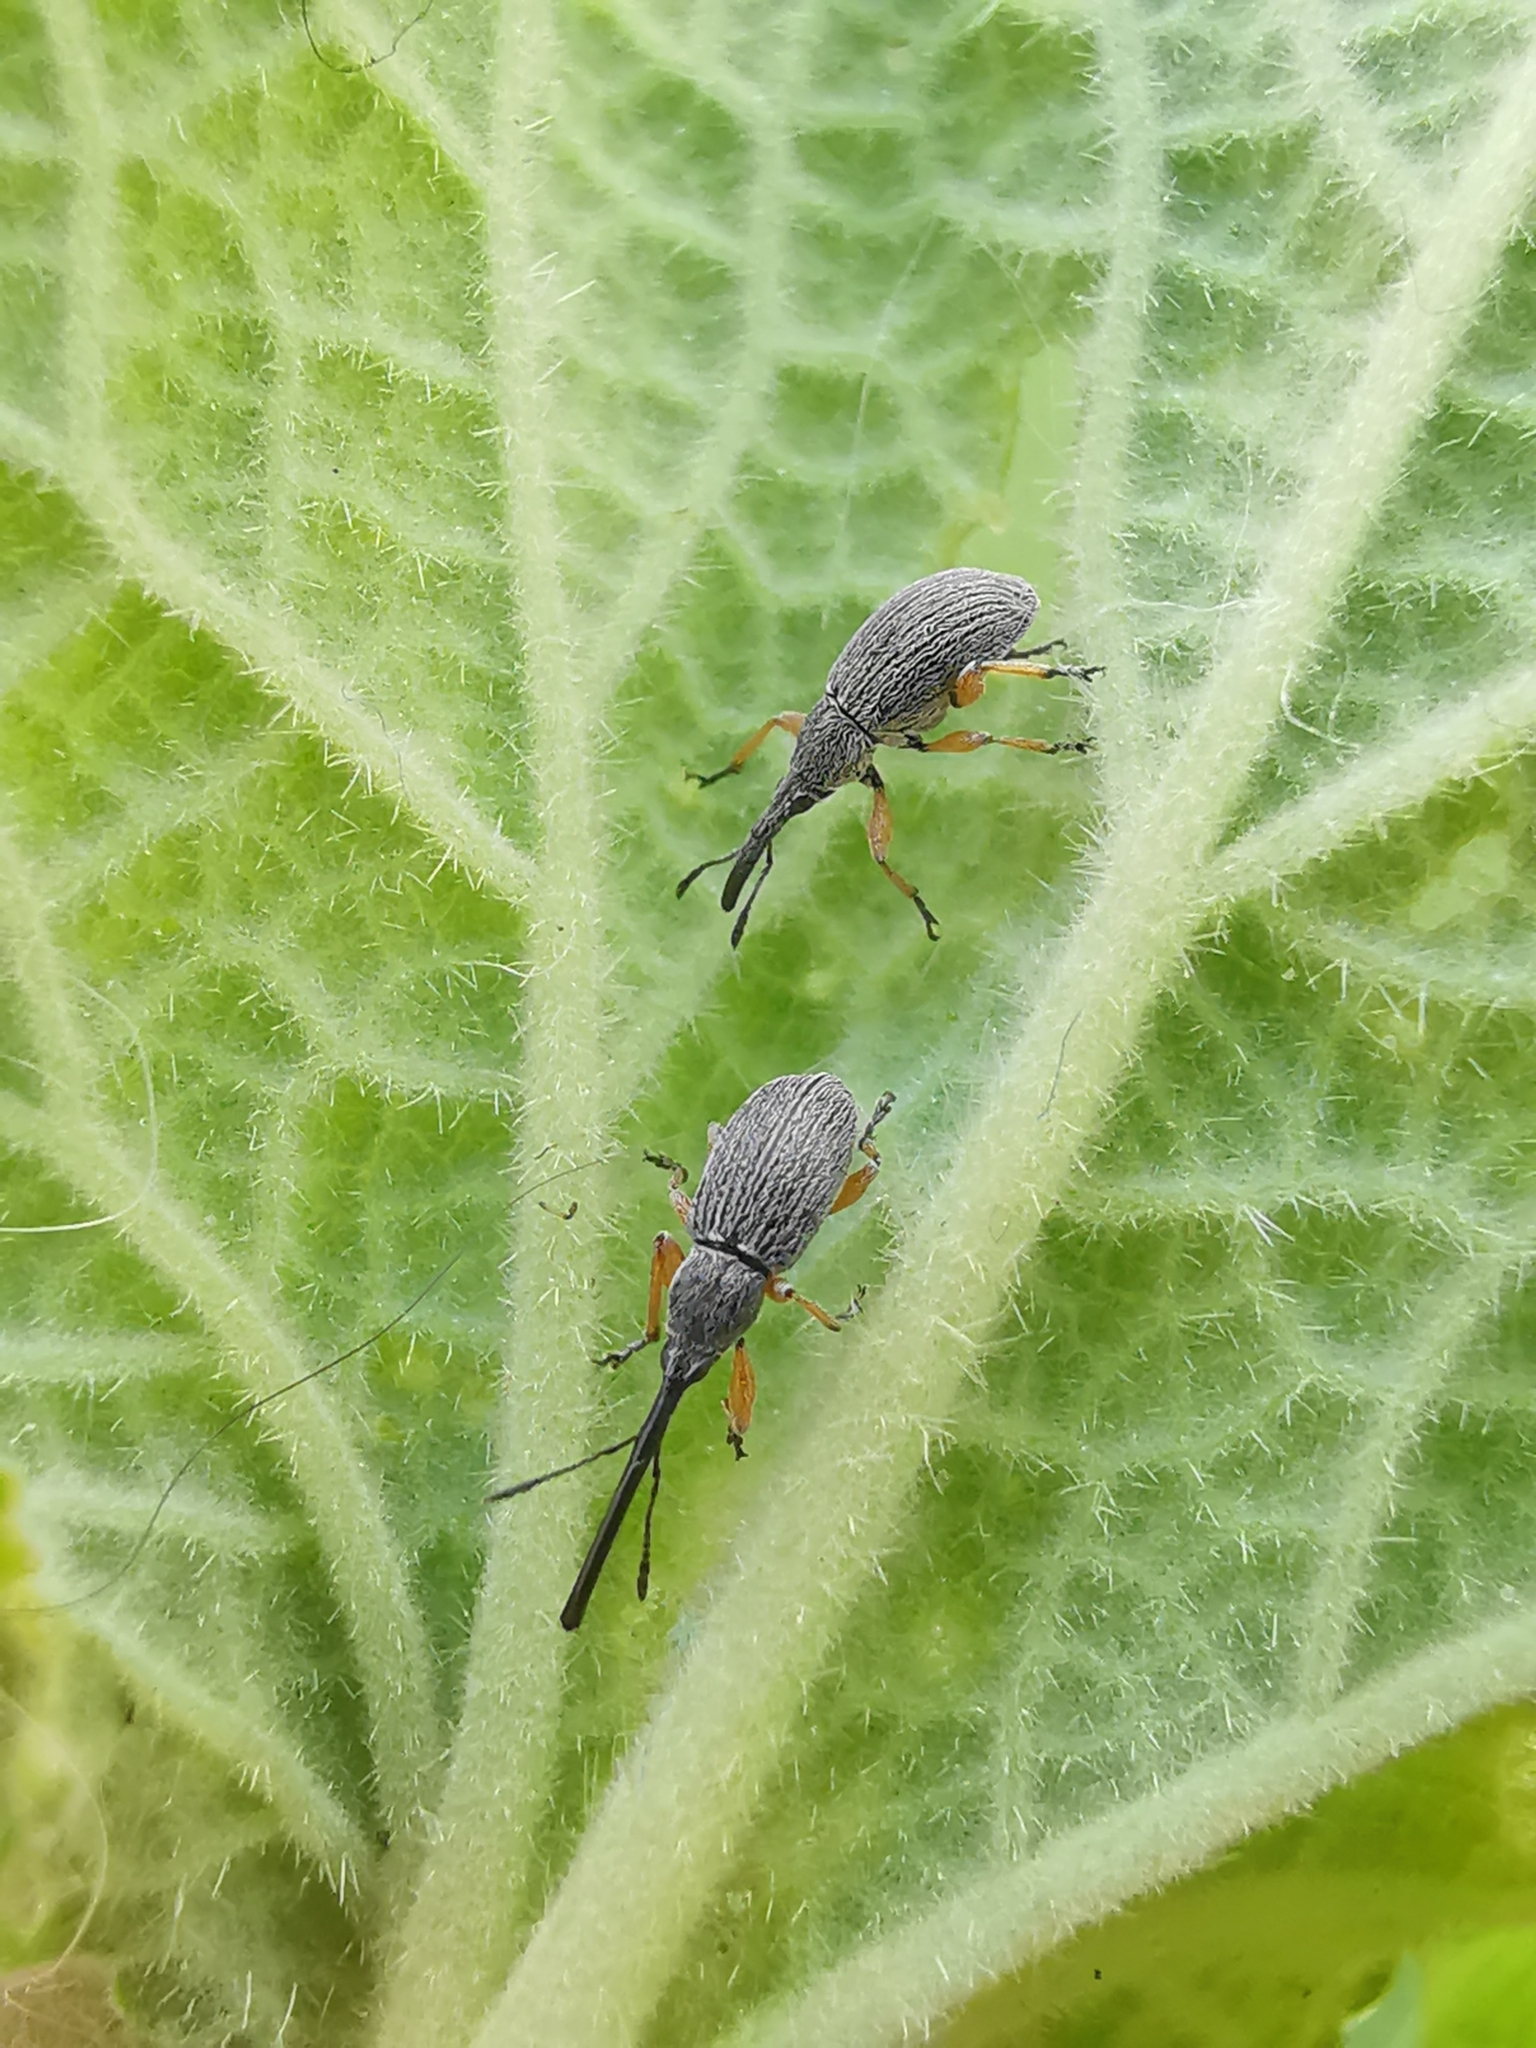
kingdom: Animalia
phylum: Arthropoda
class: Insecta
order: Coleoptera
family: Brentidae
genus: Rhopalapion
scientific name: Rhopalapion longirostre
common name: Hollyhock weevil
